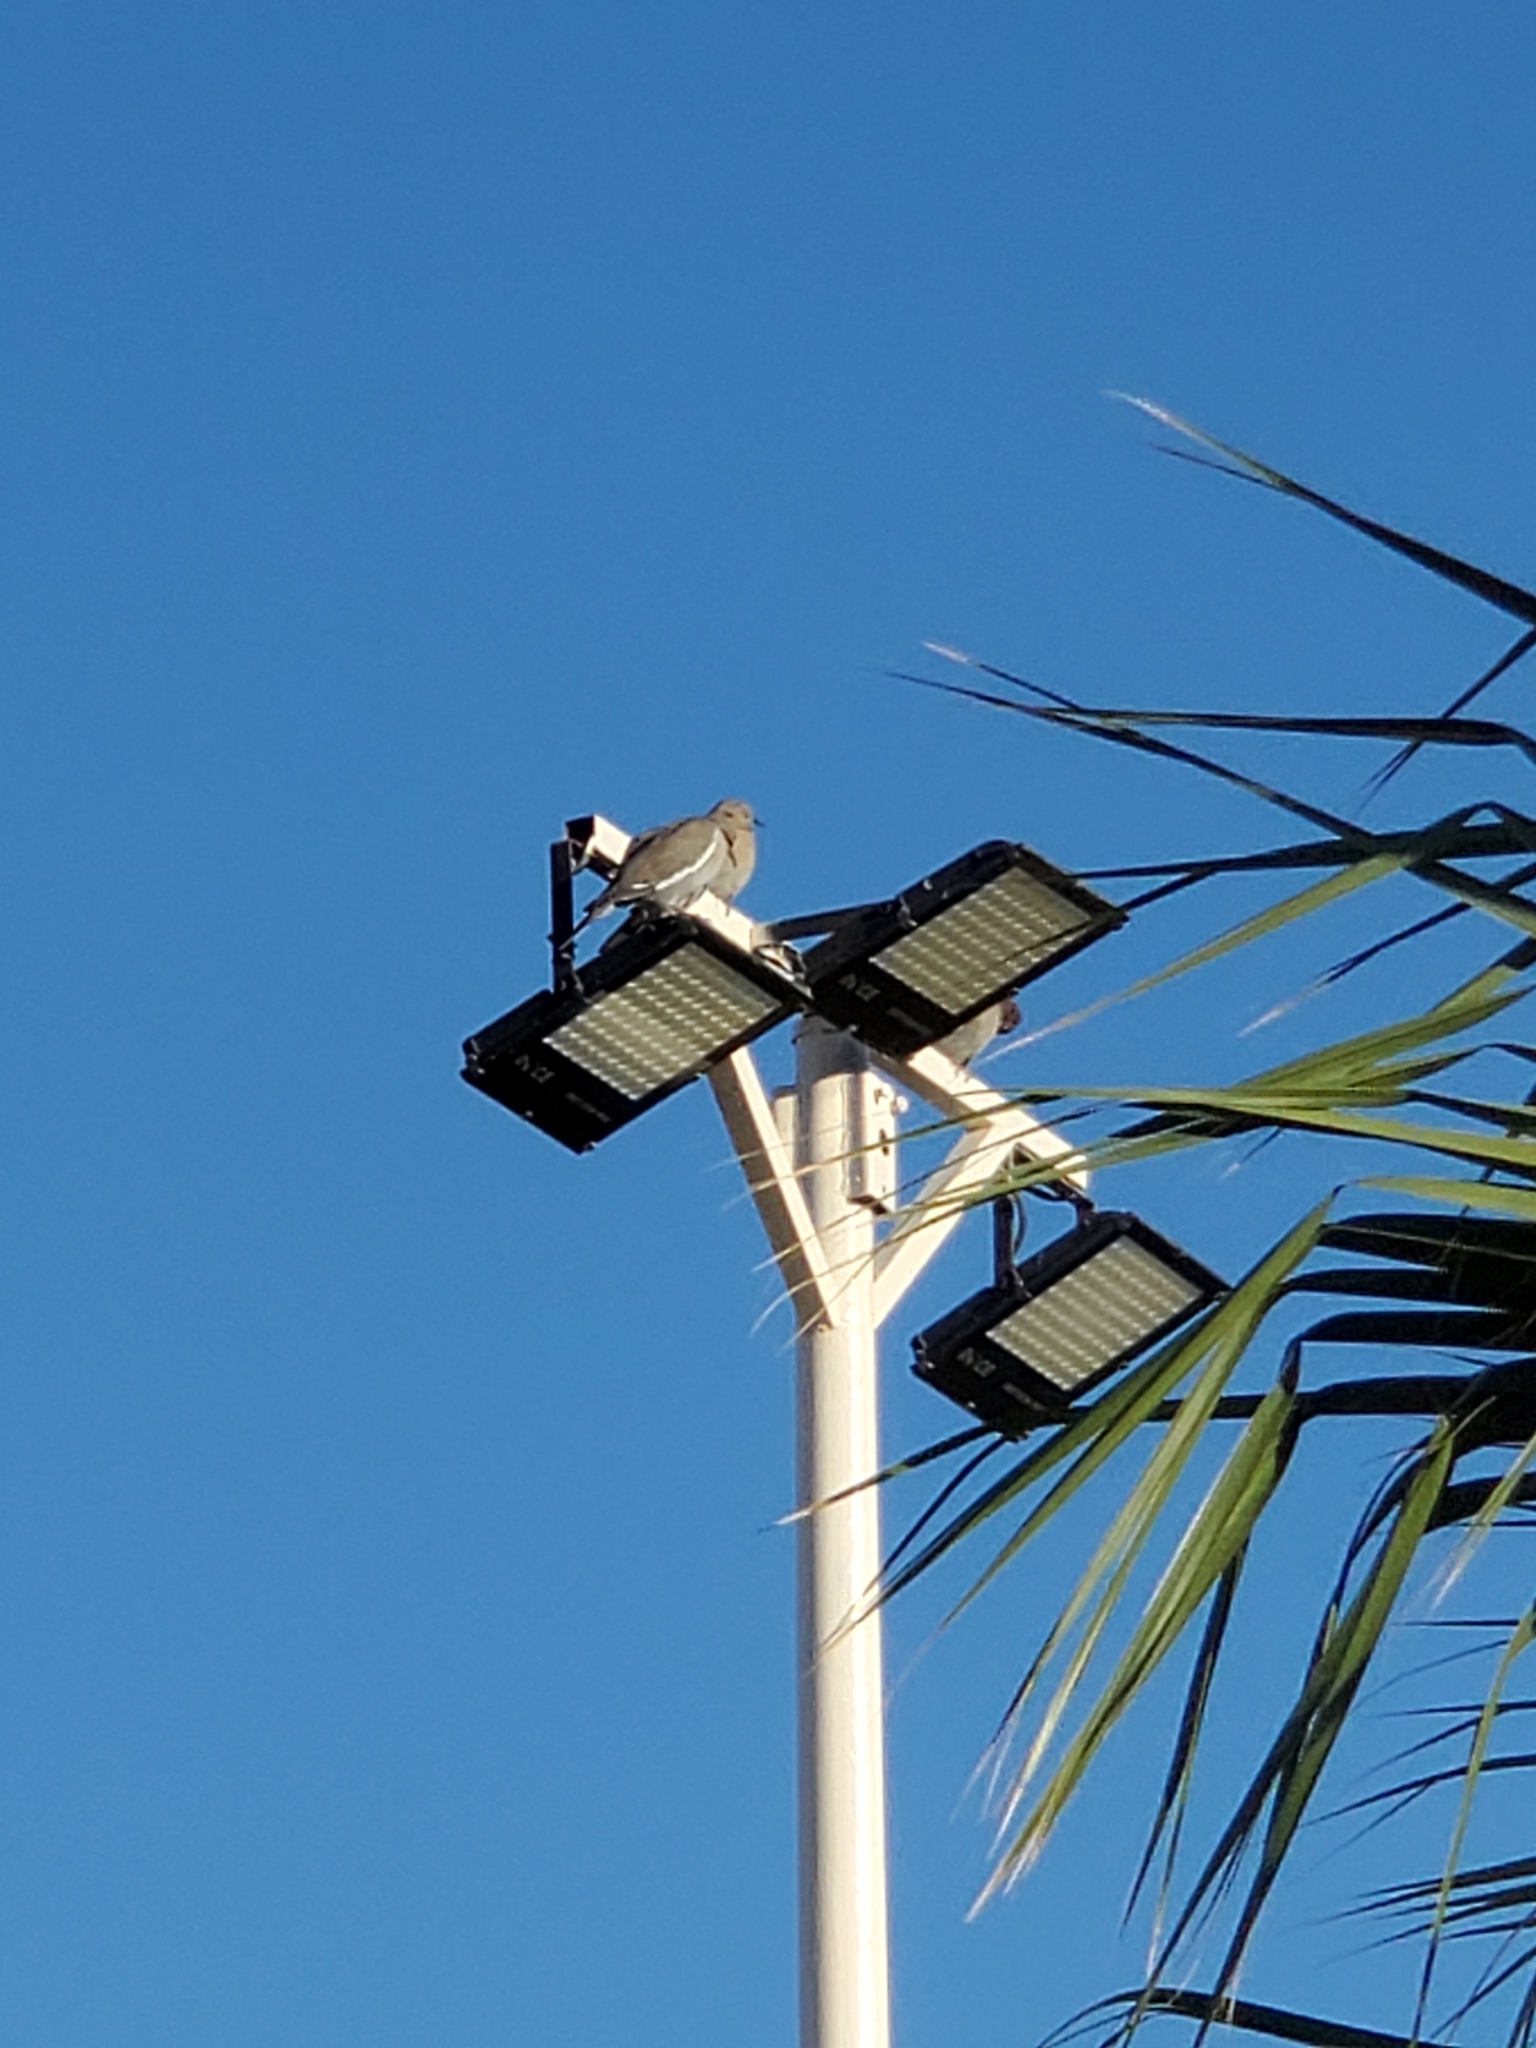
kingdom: Animalia
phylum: Chordata
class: Aves
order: Columbiformes
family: Columbidae
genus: Zenaida
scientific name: Zenaida asiatica
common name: White-winged dove
